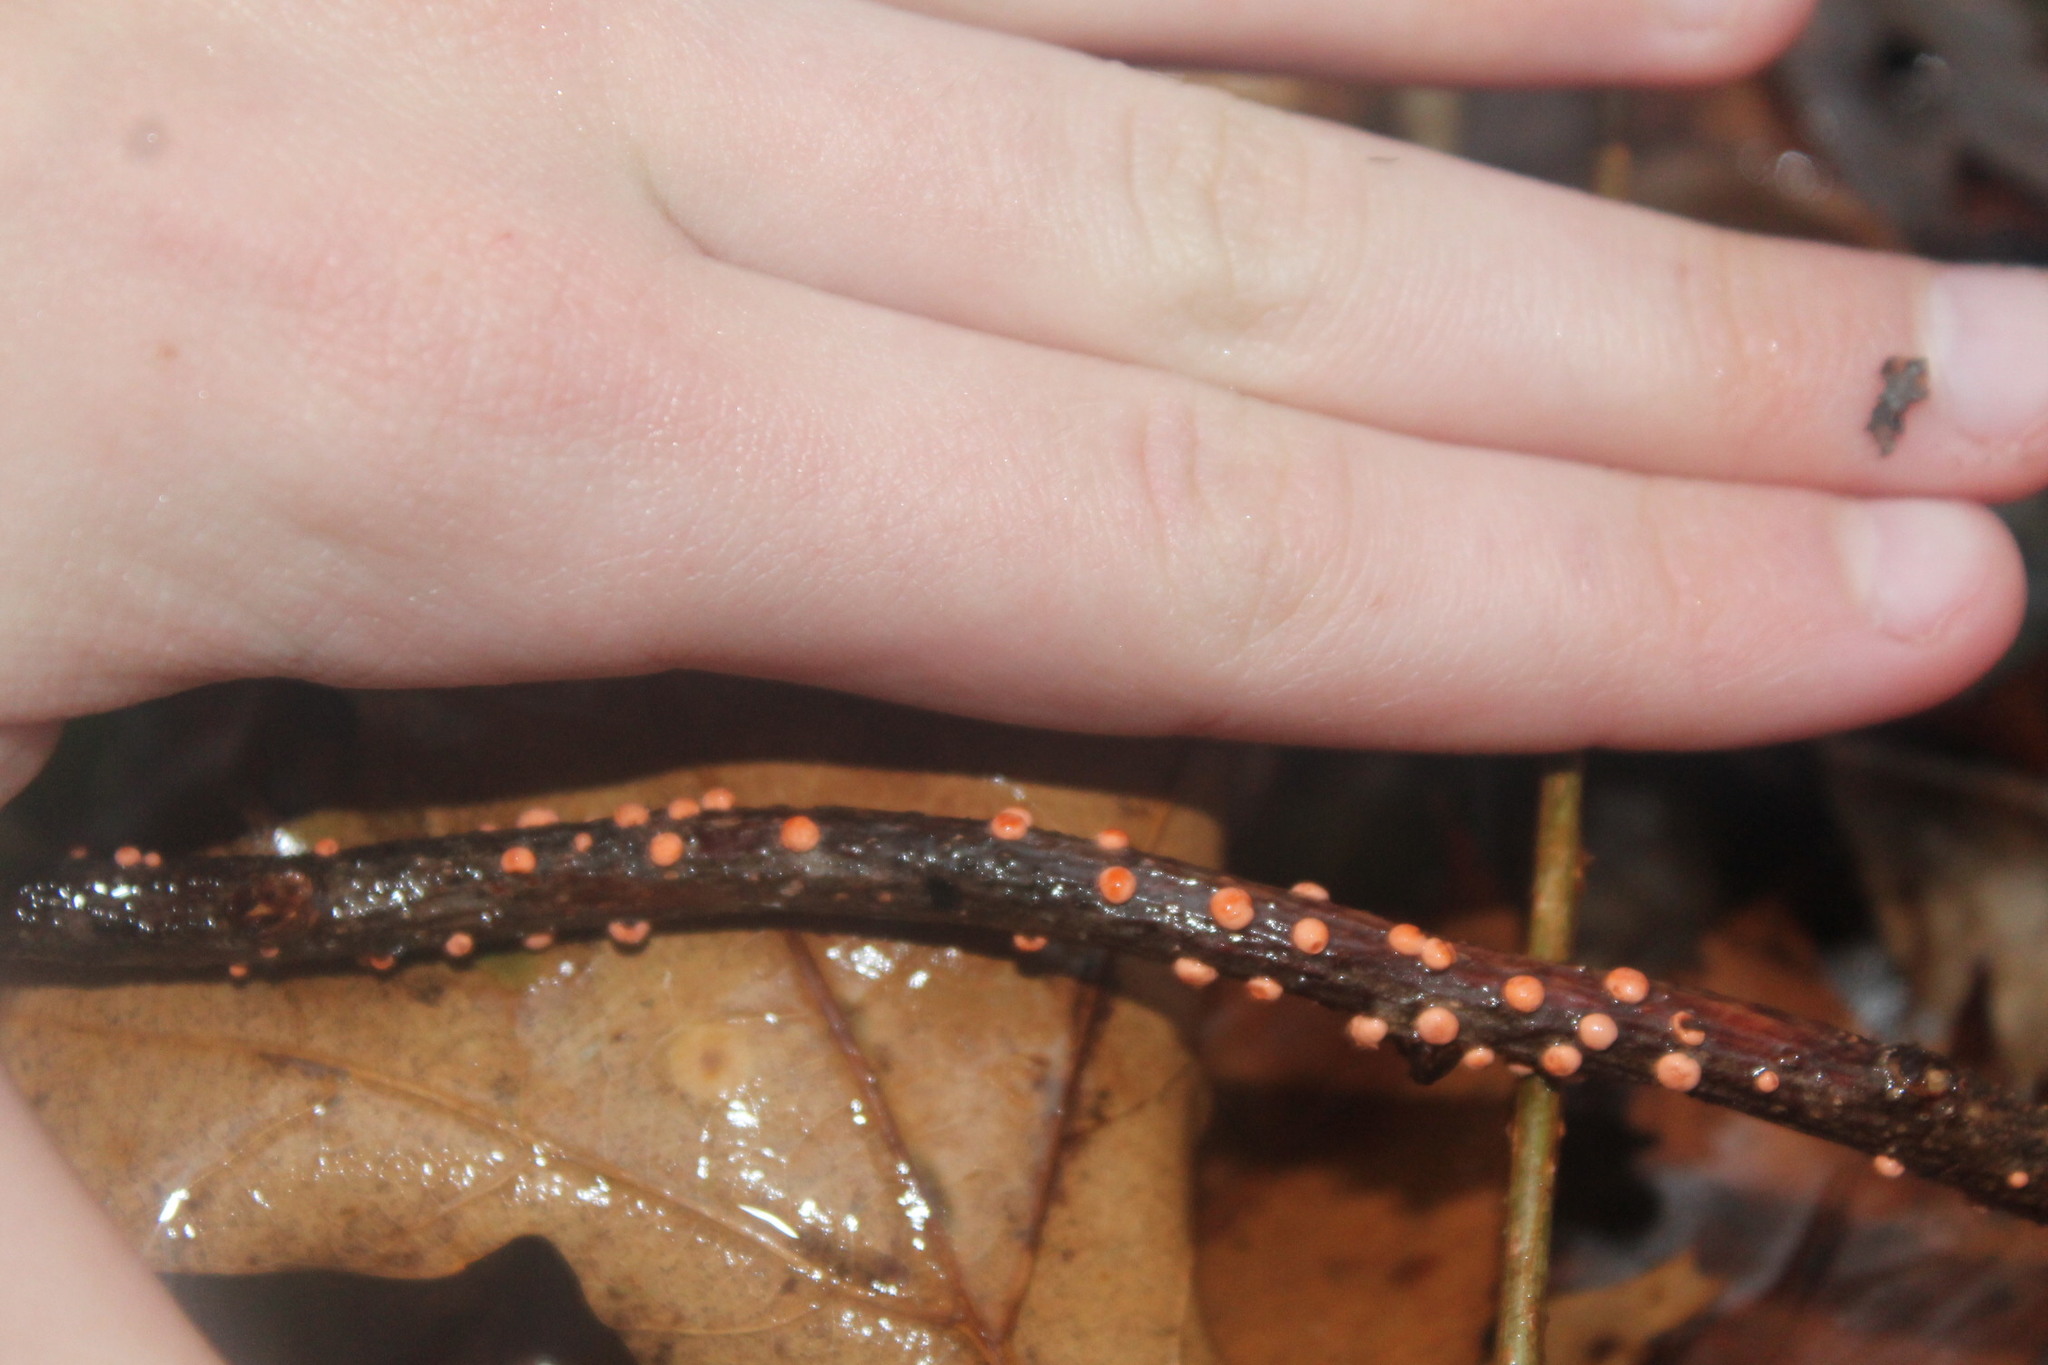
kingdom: Fungi
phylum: Ascomycota
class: Sordariomycetes
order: Hypocreales
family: Nectriaceae
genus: Nectria
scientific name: Nectria cinnabarina
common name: Coral spot
